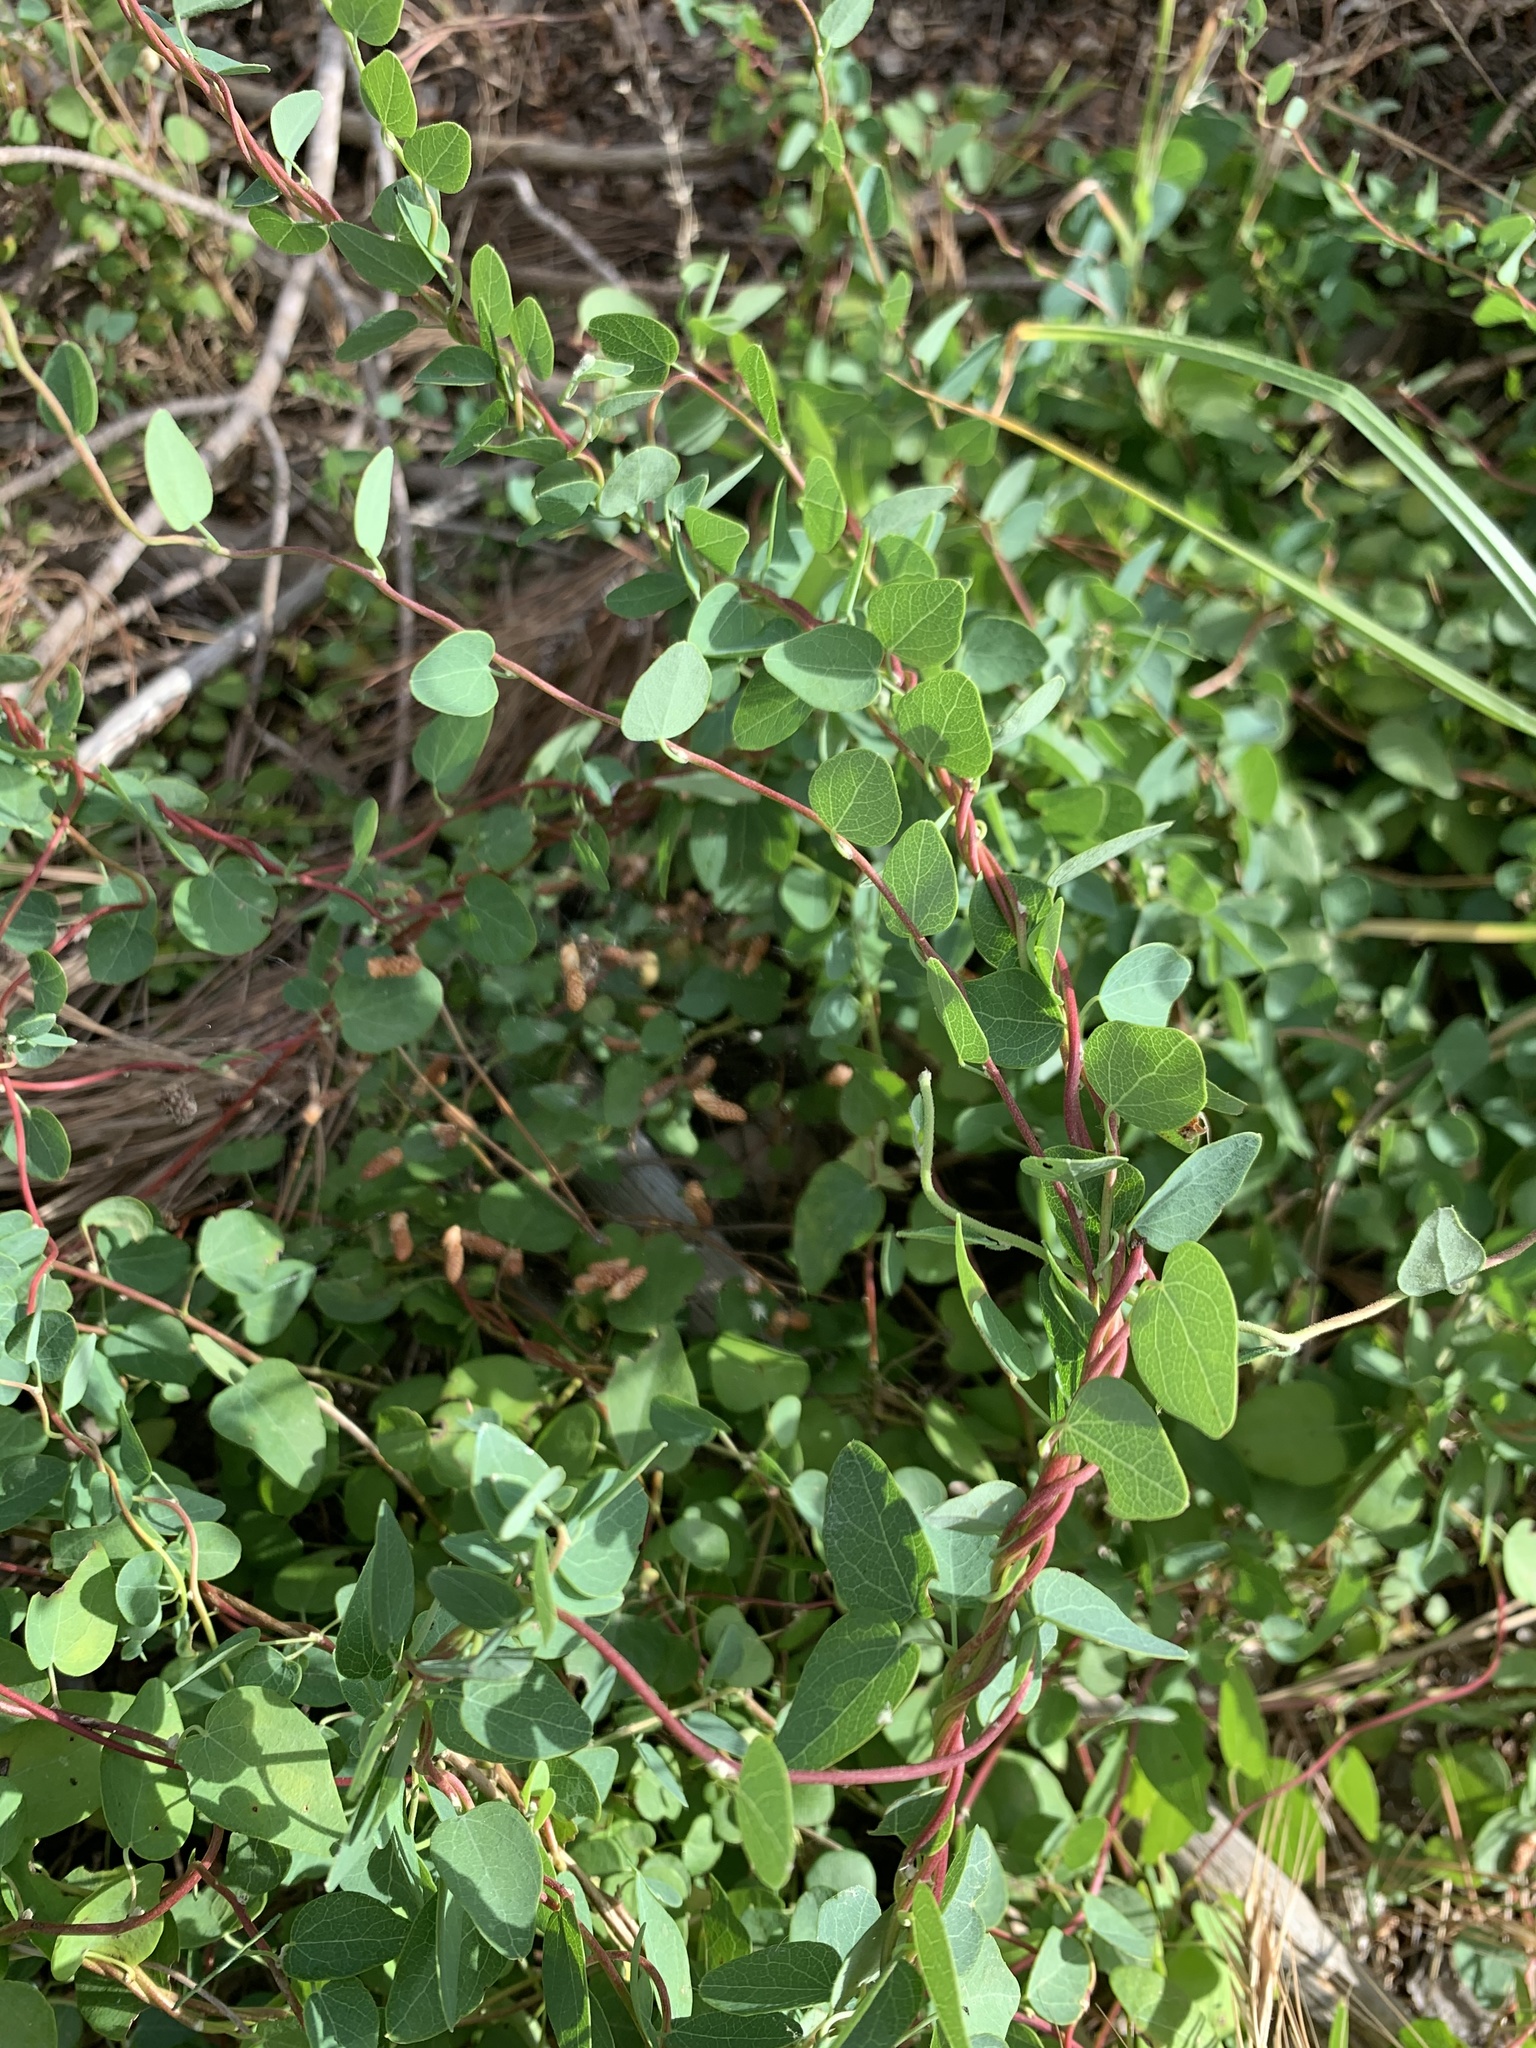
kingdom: Plantae
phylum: Tracheophyta
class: Magnoliopsida
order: Ranunculales
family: Menispermaceae
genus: Cissampelos
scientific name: Cissampelos capensis
